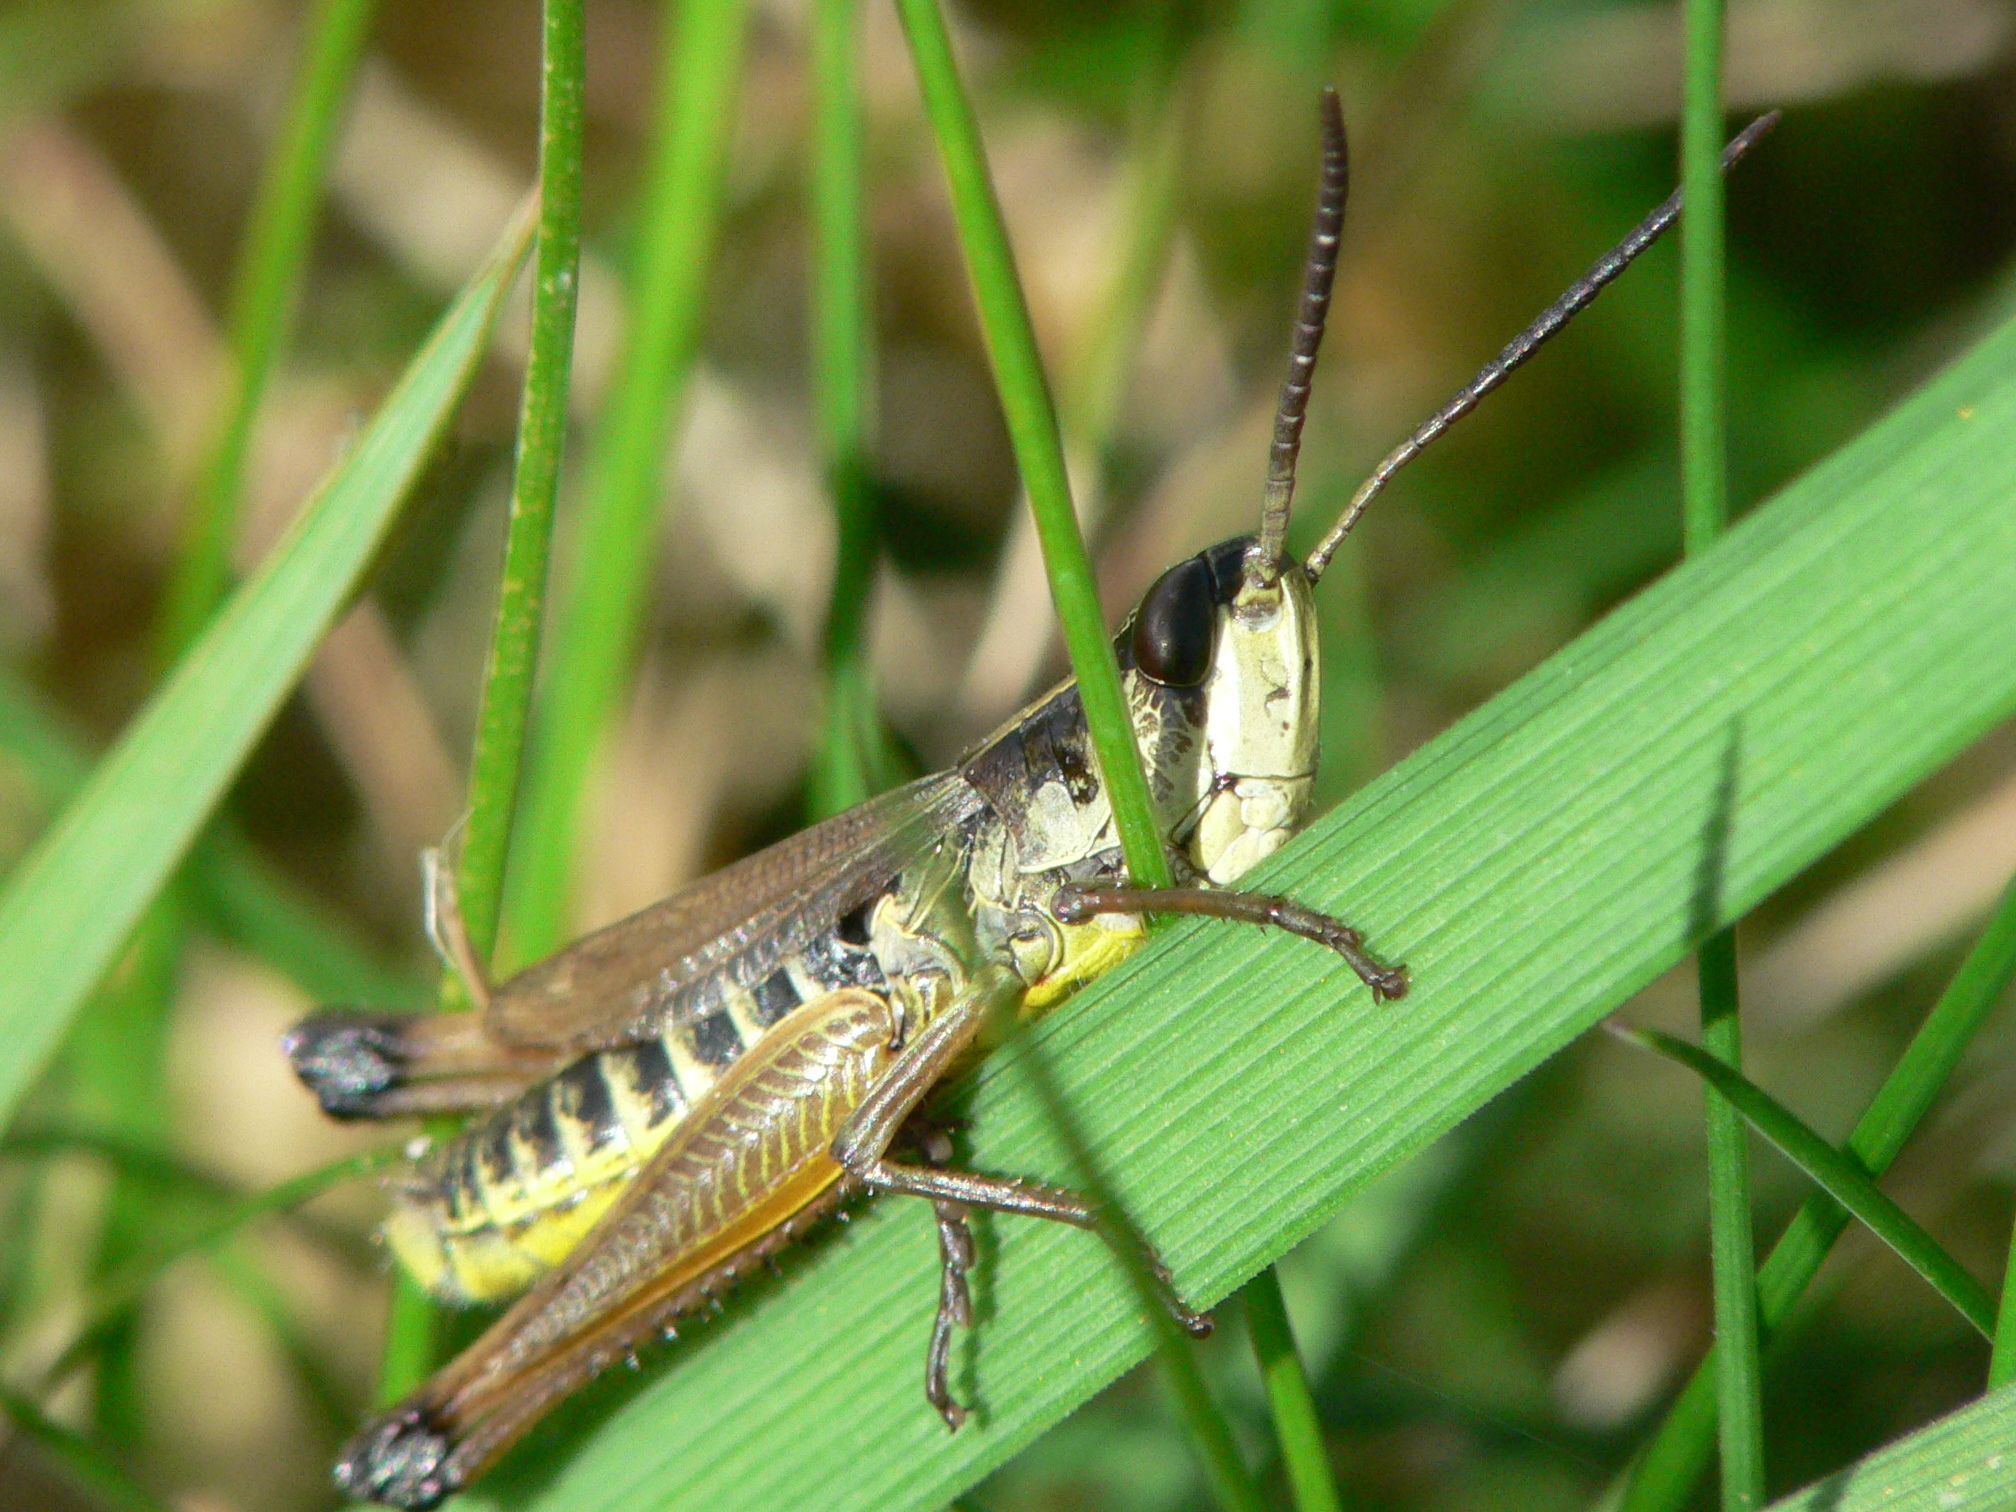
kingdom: Animalia
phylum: Arthropoda
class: Insecta
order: Orthoptera
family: Acrididae
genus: Pseudochorthippus
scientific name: Pseudochorthippus curtipennis
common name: Marsh meadow grasshopper
